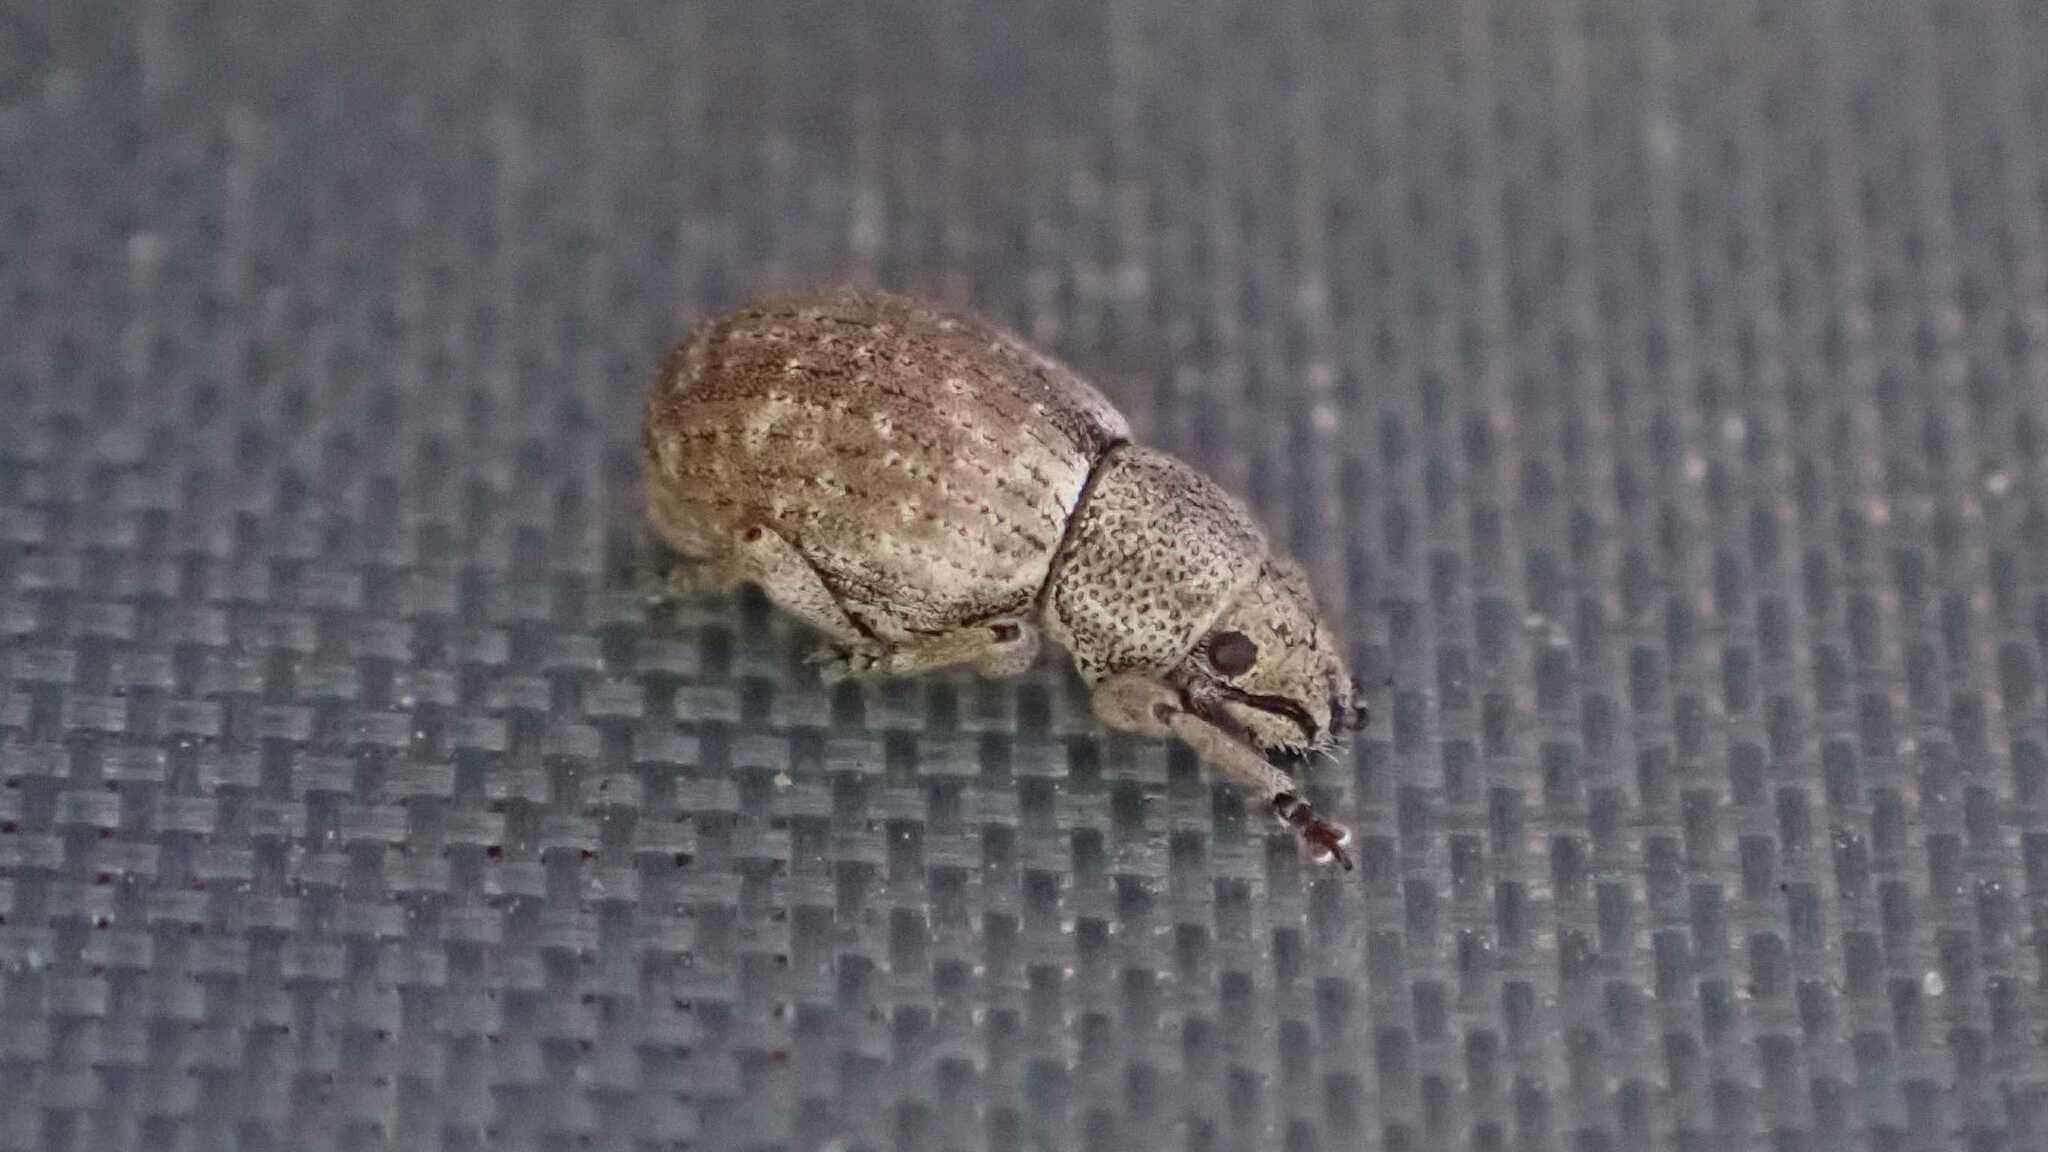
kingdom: Animalia
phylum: Arthropoda
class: Insecta
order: Coleoptera
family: Curculionidae
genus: Strophosoma
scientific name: Strophosoma capitatum
